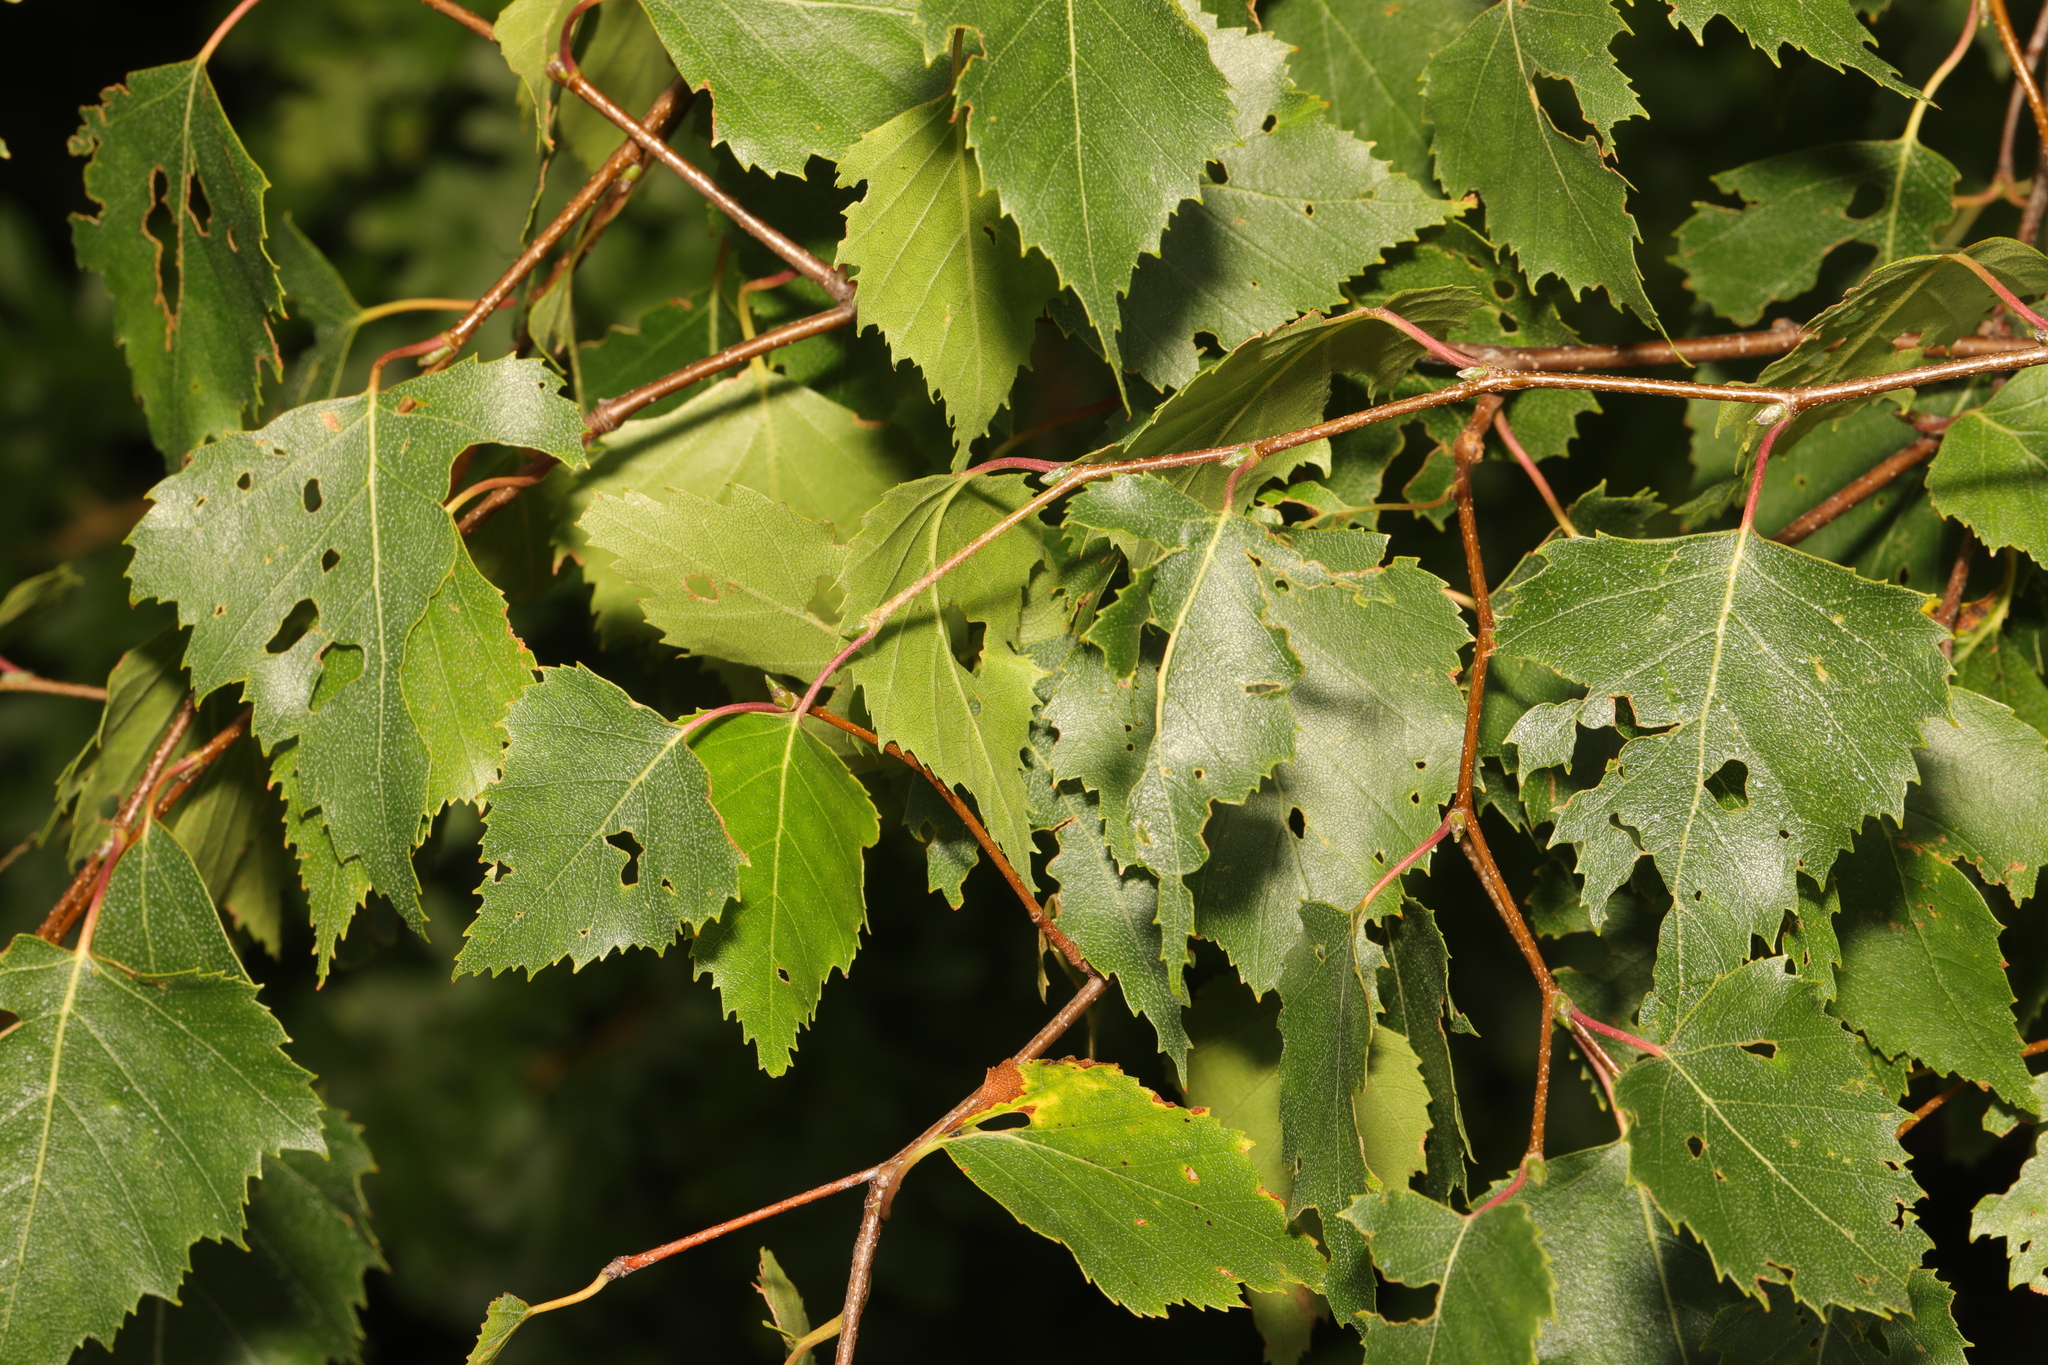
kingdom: Plantae
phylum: Tracheophyta
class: Magnoliopsida
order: Fagales
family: Betulaceae
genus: Betula
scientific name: Betula pendula
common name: Silver birch
